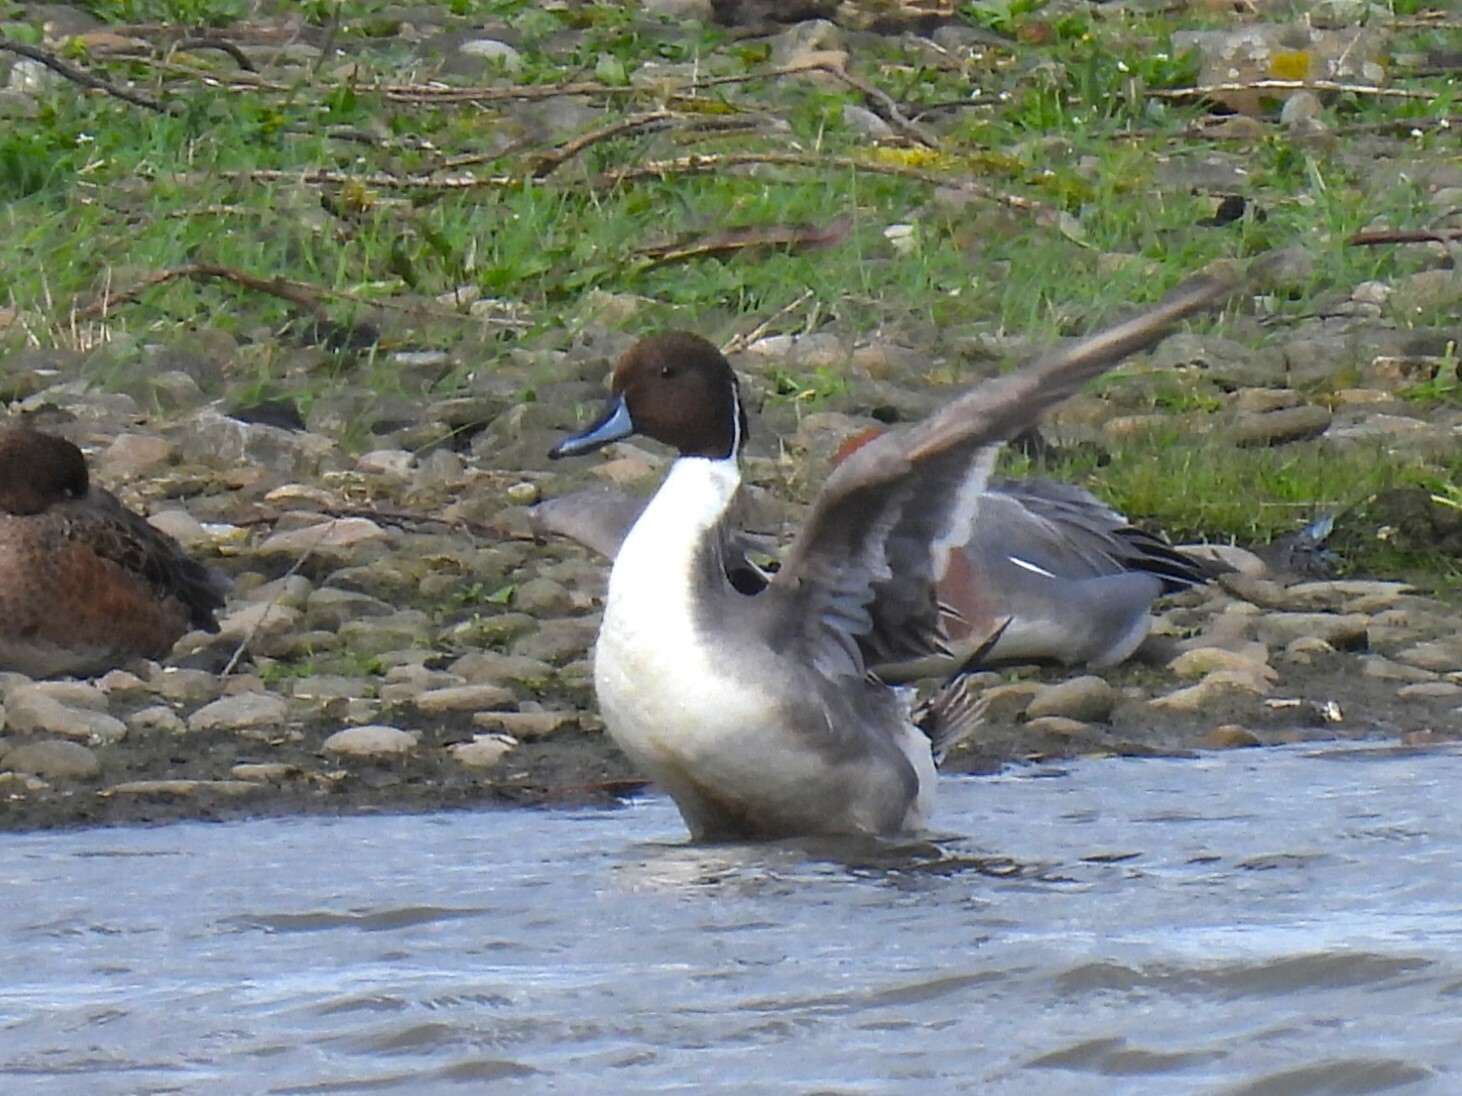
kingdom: Animalia
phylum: Chordata
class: Aves
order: Anseriformes
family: Anatidae
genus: Anas
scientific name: Anas acuta
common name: Northern pintail
